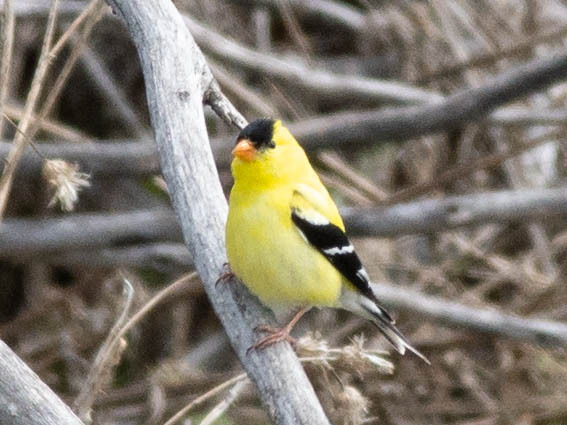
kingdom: Animalia
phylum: Chordata
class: Aves
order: Passeriformes
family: Fringillidae
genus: Spinus
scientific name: Spinus tristis
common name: American goldfinch
